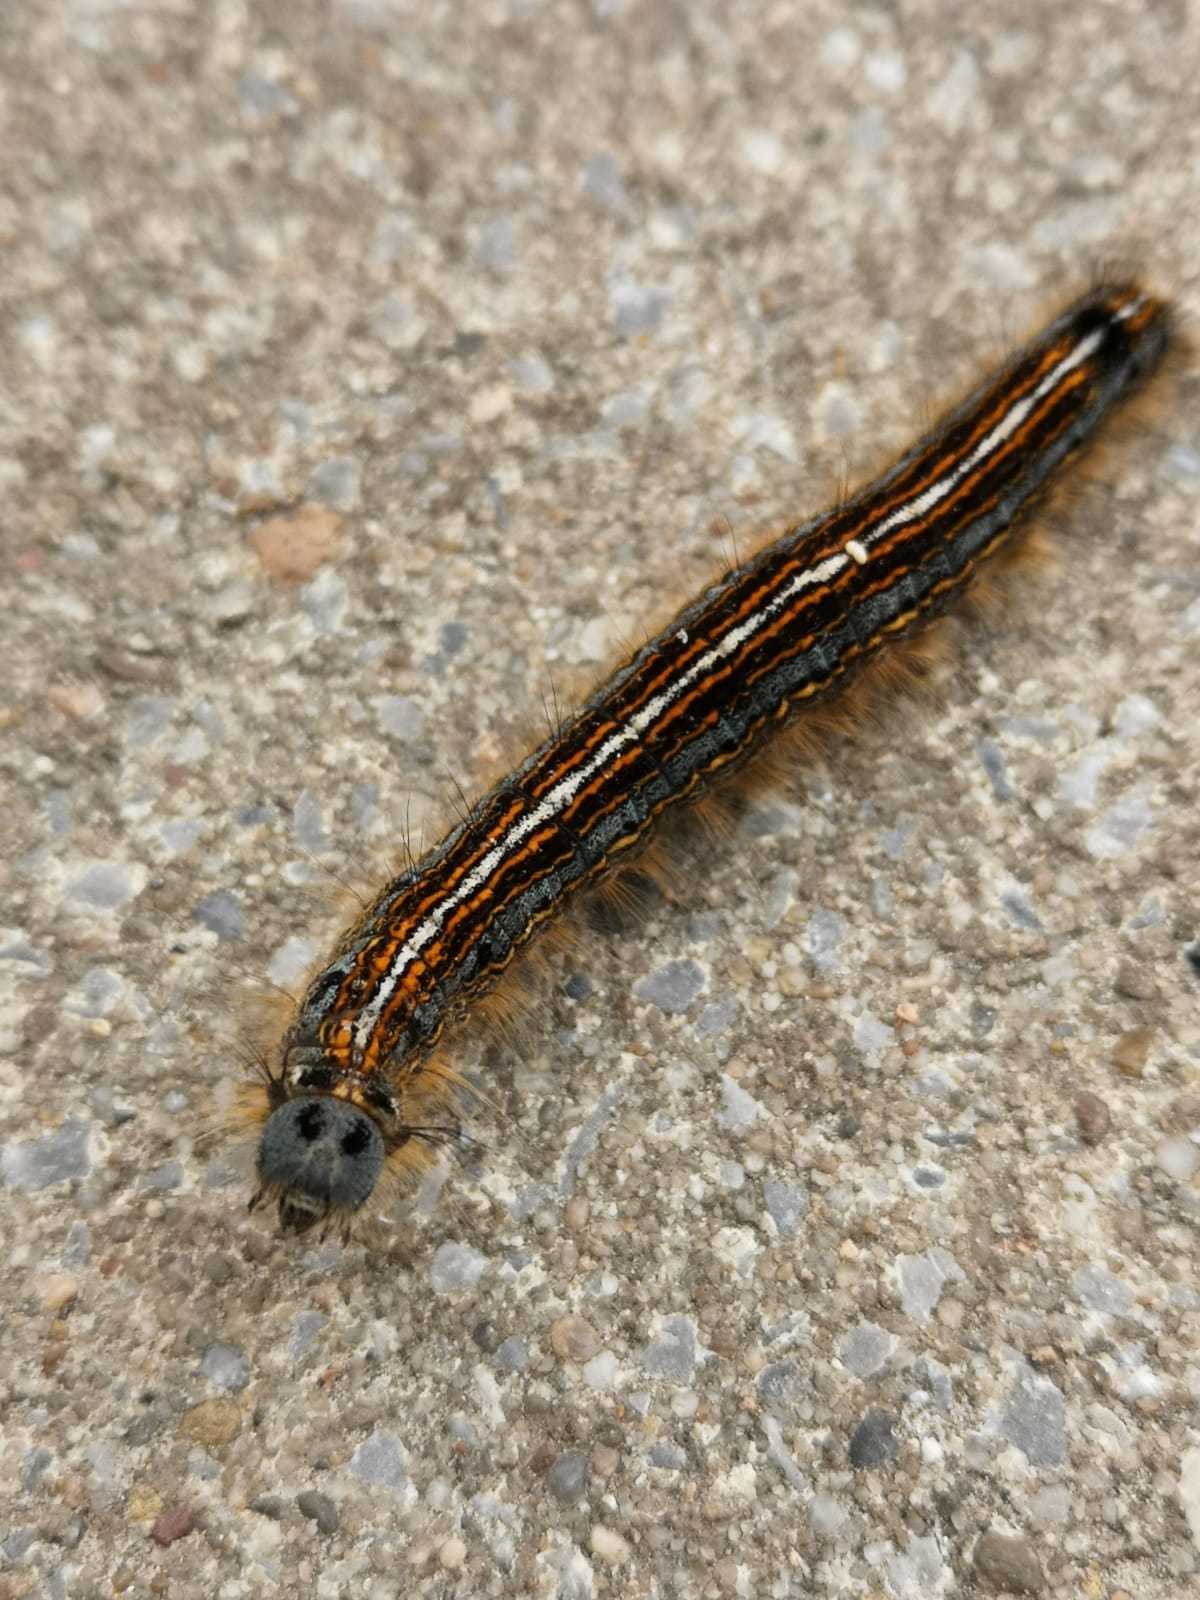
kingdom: Animalia
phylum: Arthropoda
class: Insecta
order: Lepidoptera
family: Lasiocampidae
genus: Malacosoma
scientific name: Malacosoma neustria
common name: The lackey
